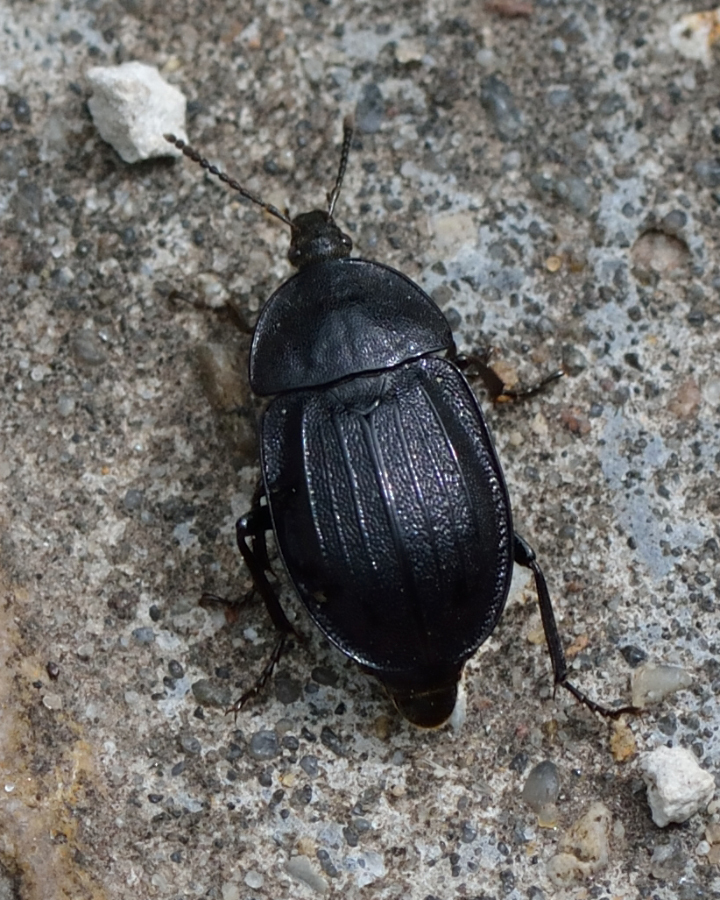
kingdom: Animalia
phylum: Arthropoda
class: Insecta
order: Coleoptera
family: Staphylinidae
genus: Silpha
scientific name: Silpha atrata
